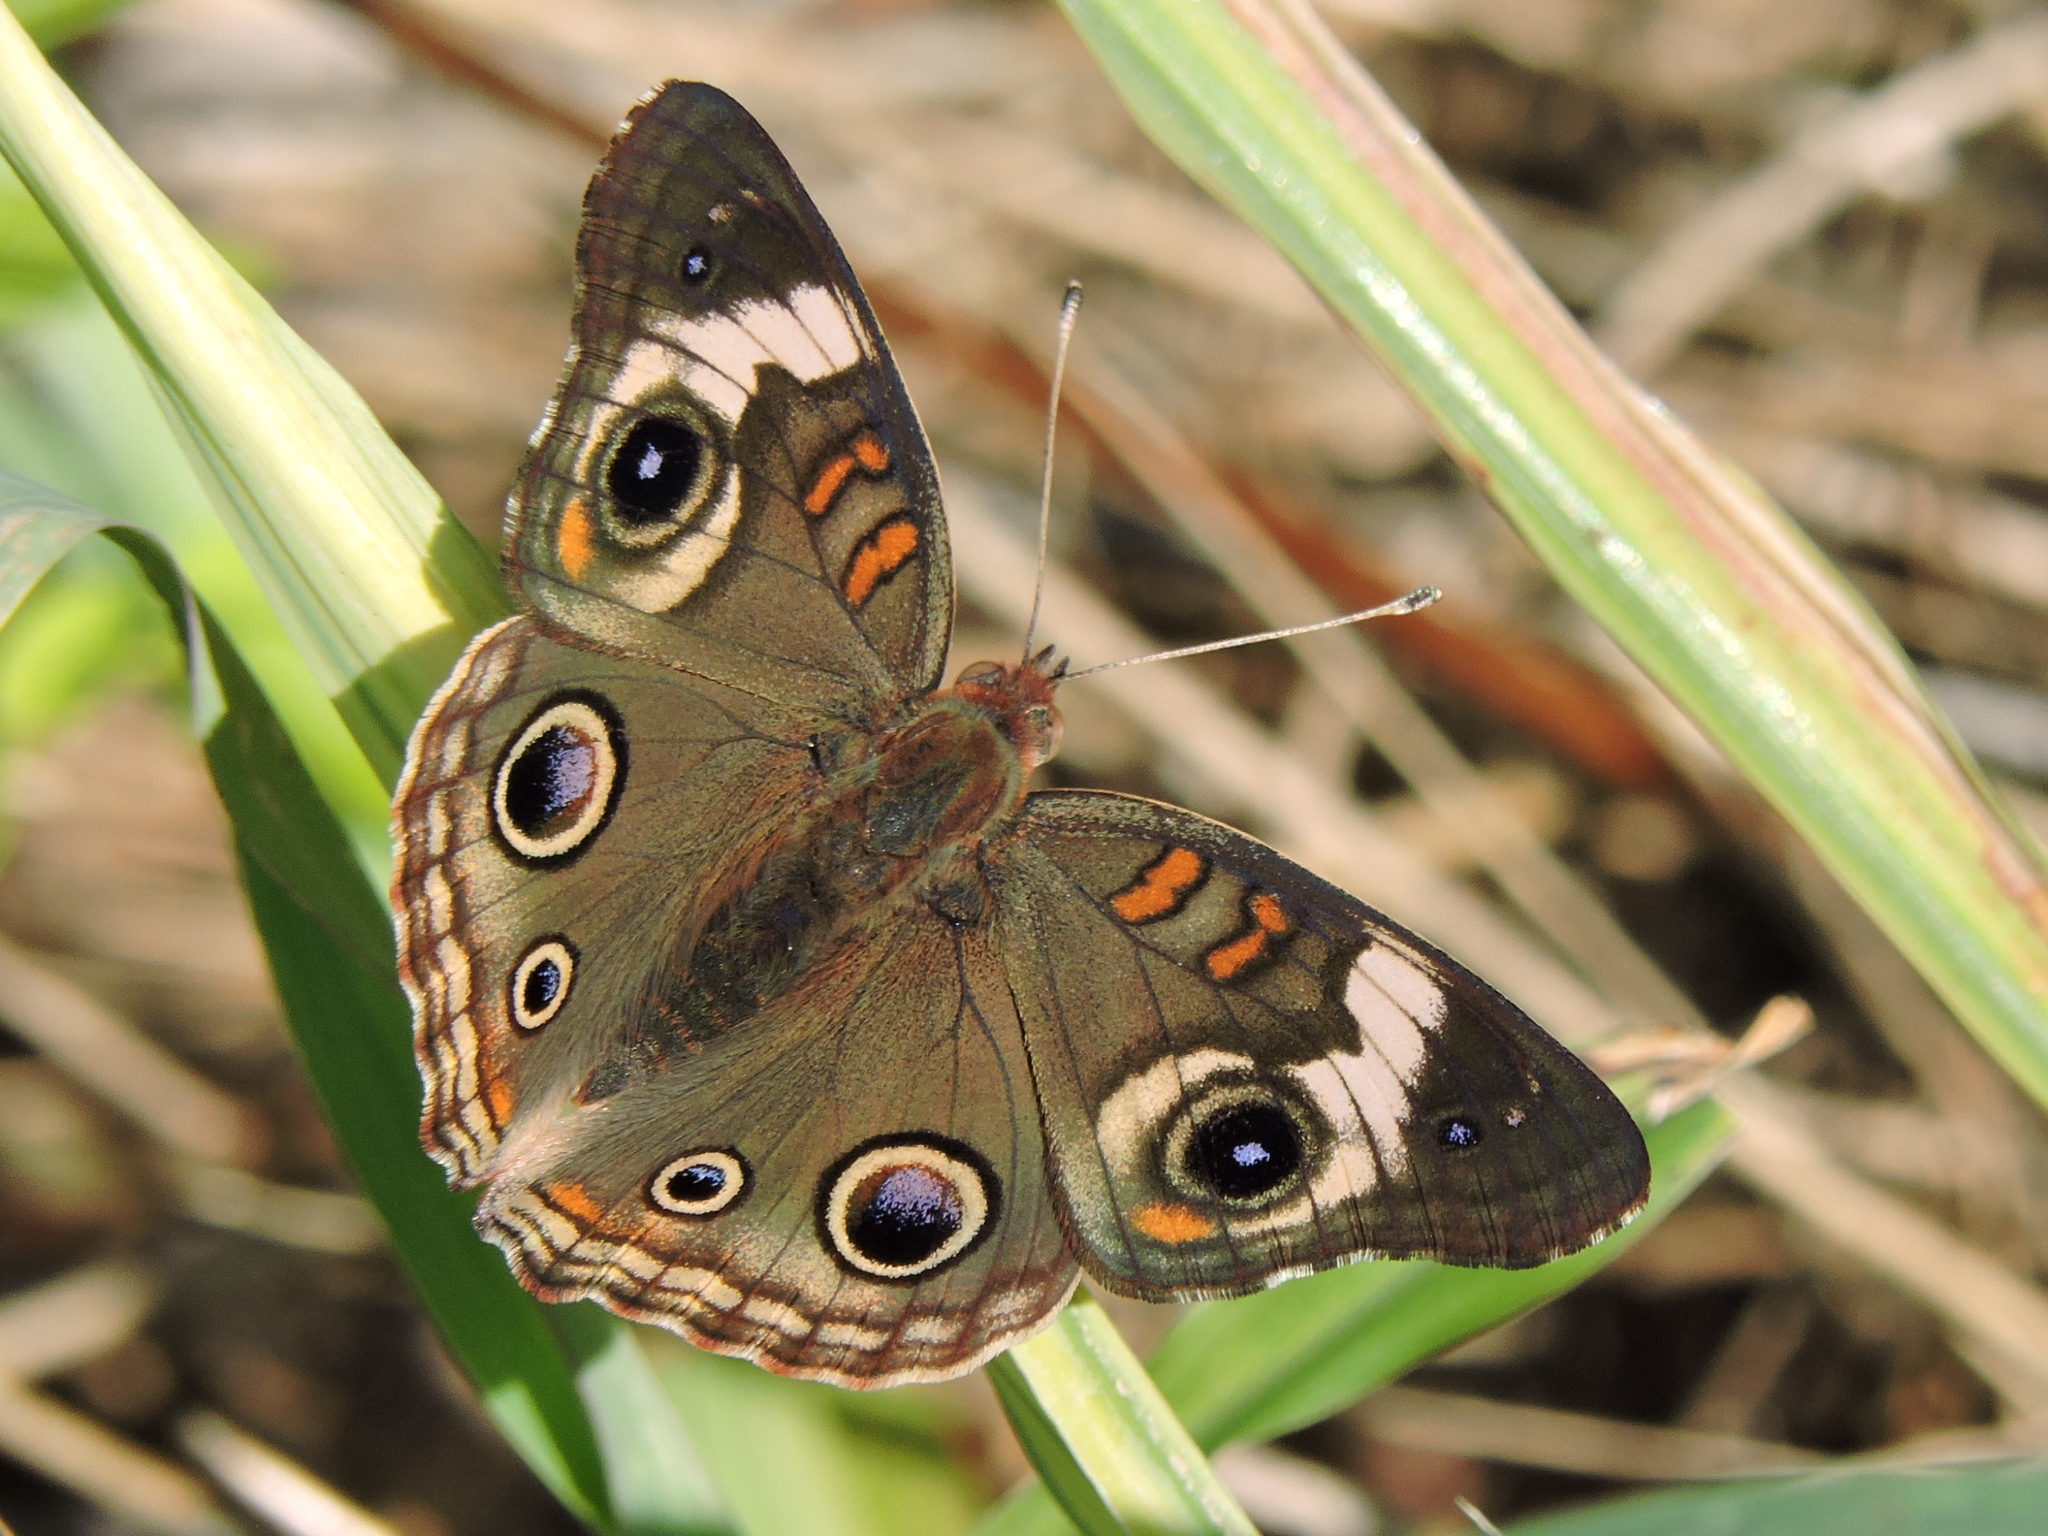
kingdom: Animalia
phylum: Arthropoda
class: Insecta
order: Lepidoptera
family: Nymphalidae
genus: Junonia
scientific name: Junonia coenia
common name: Common buckeye
